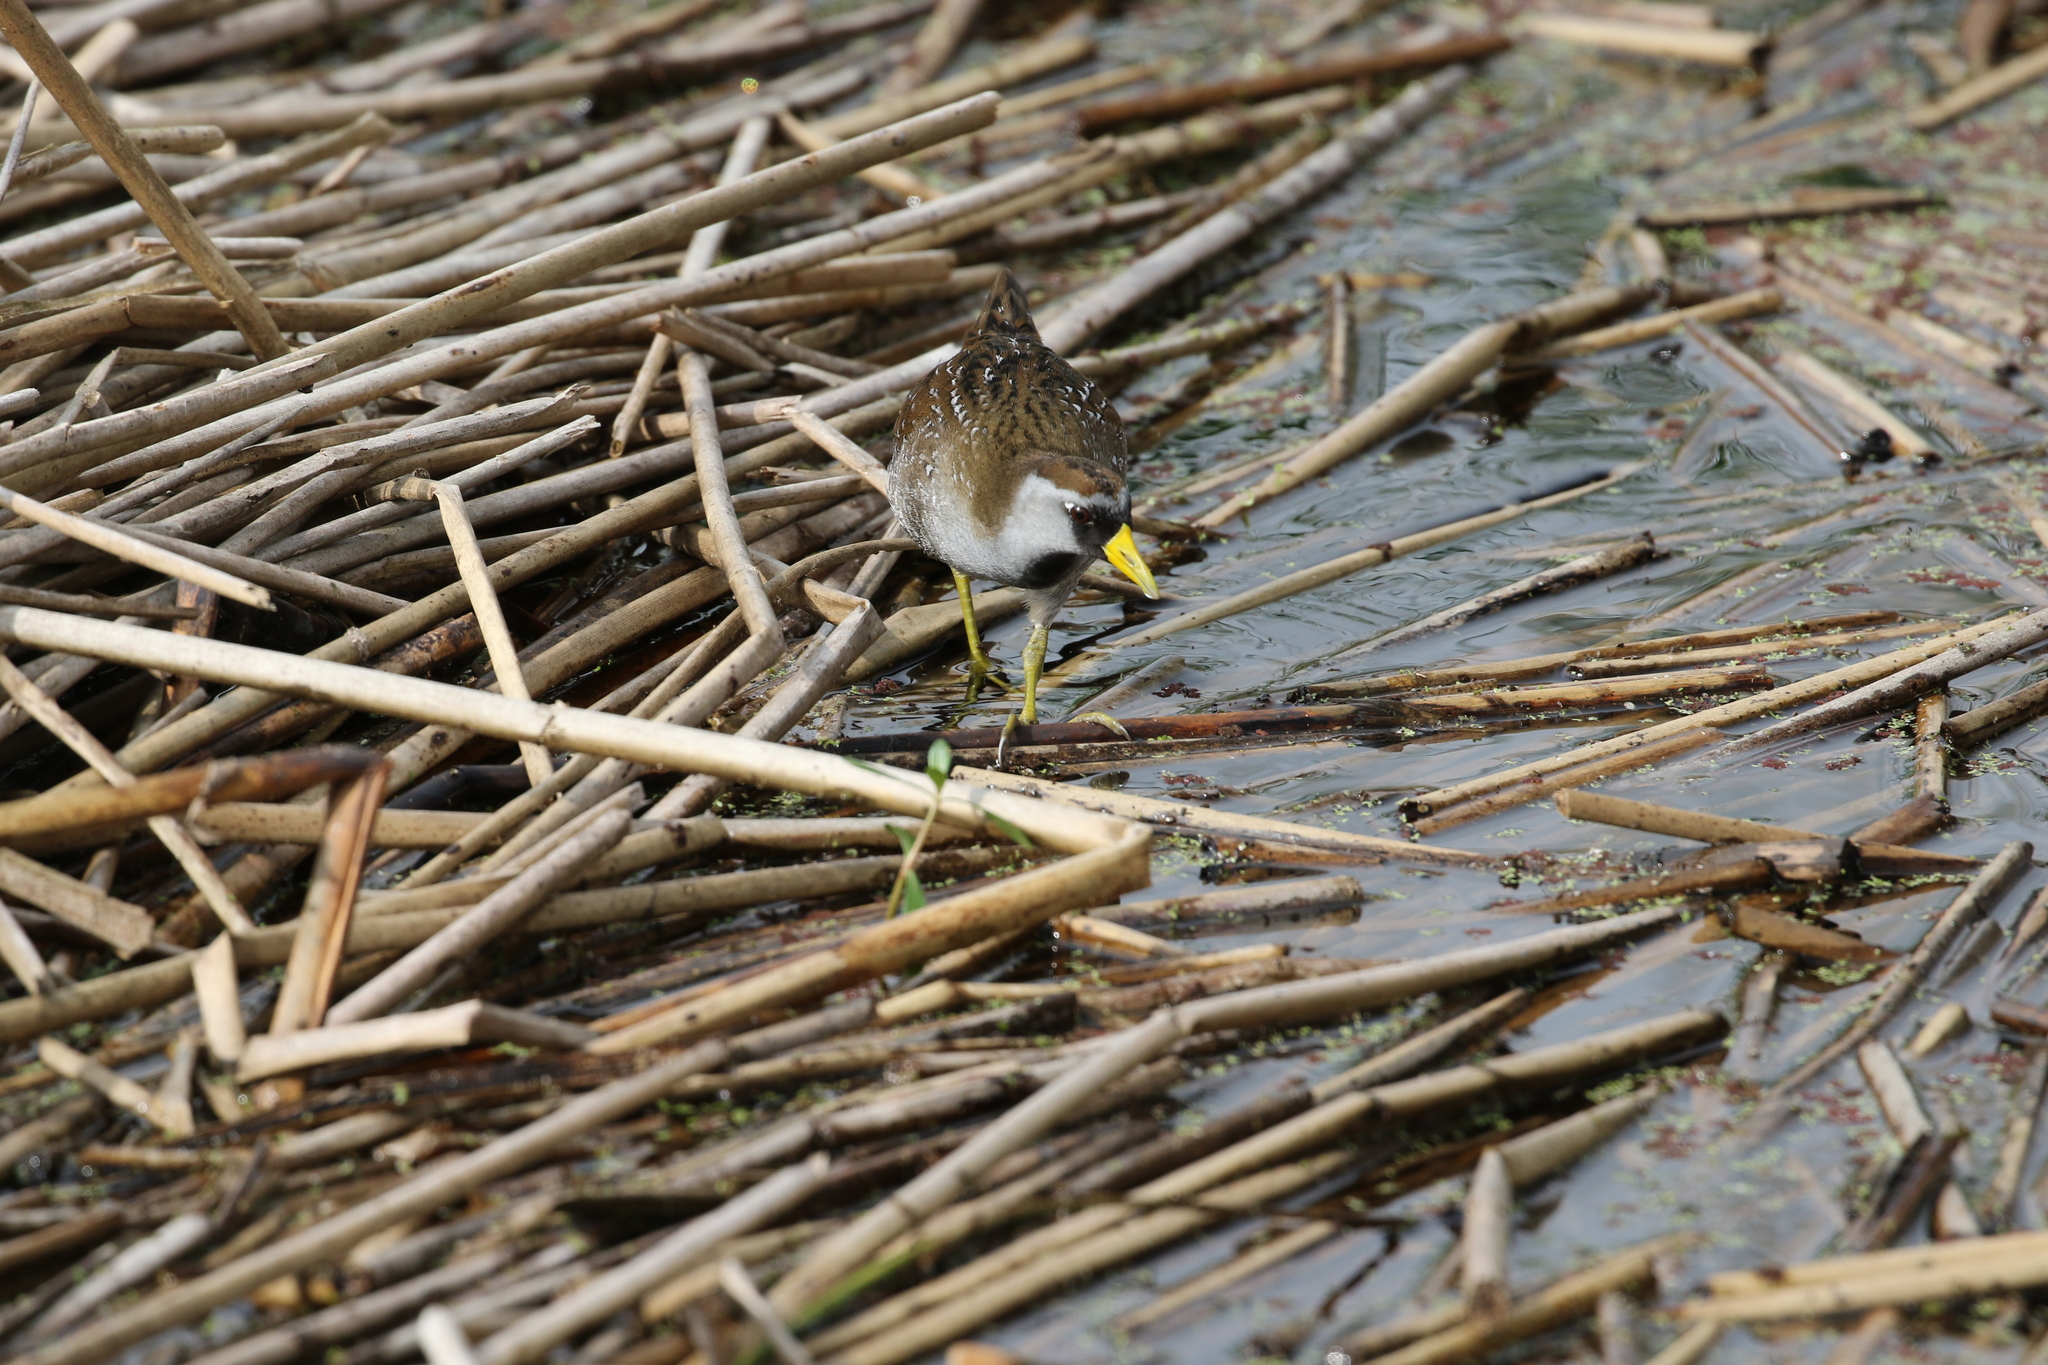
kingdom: Animalia
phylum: Chordata
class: Aves
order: Gruiformes
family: Rallidae
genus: Porzana
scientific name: Porzana carolina
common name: Sora
